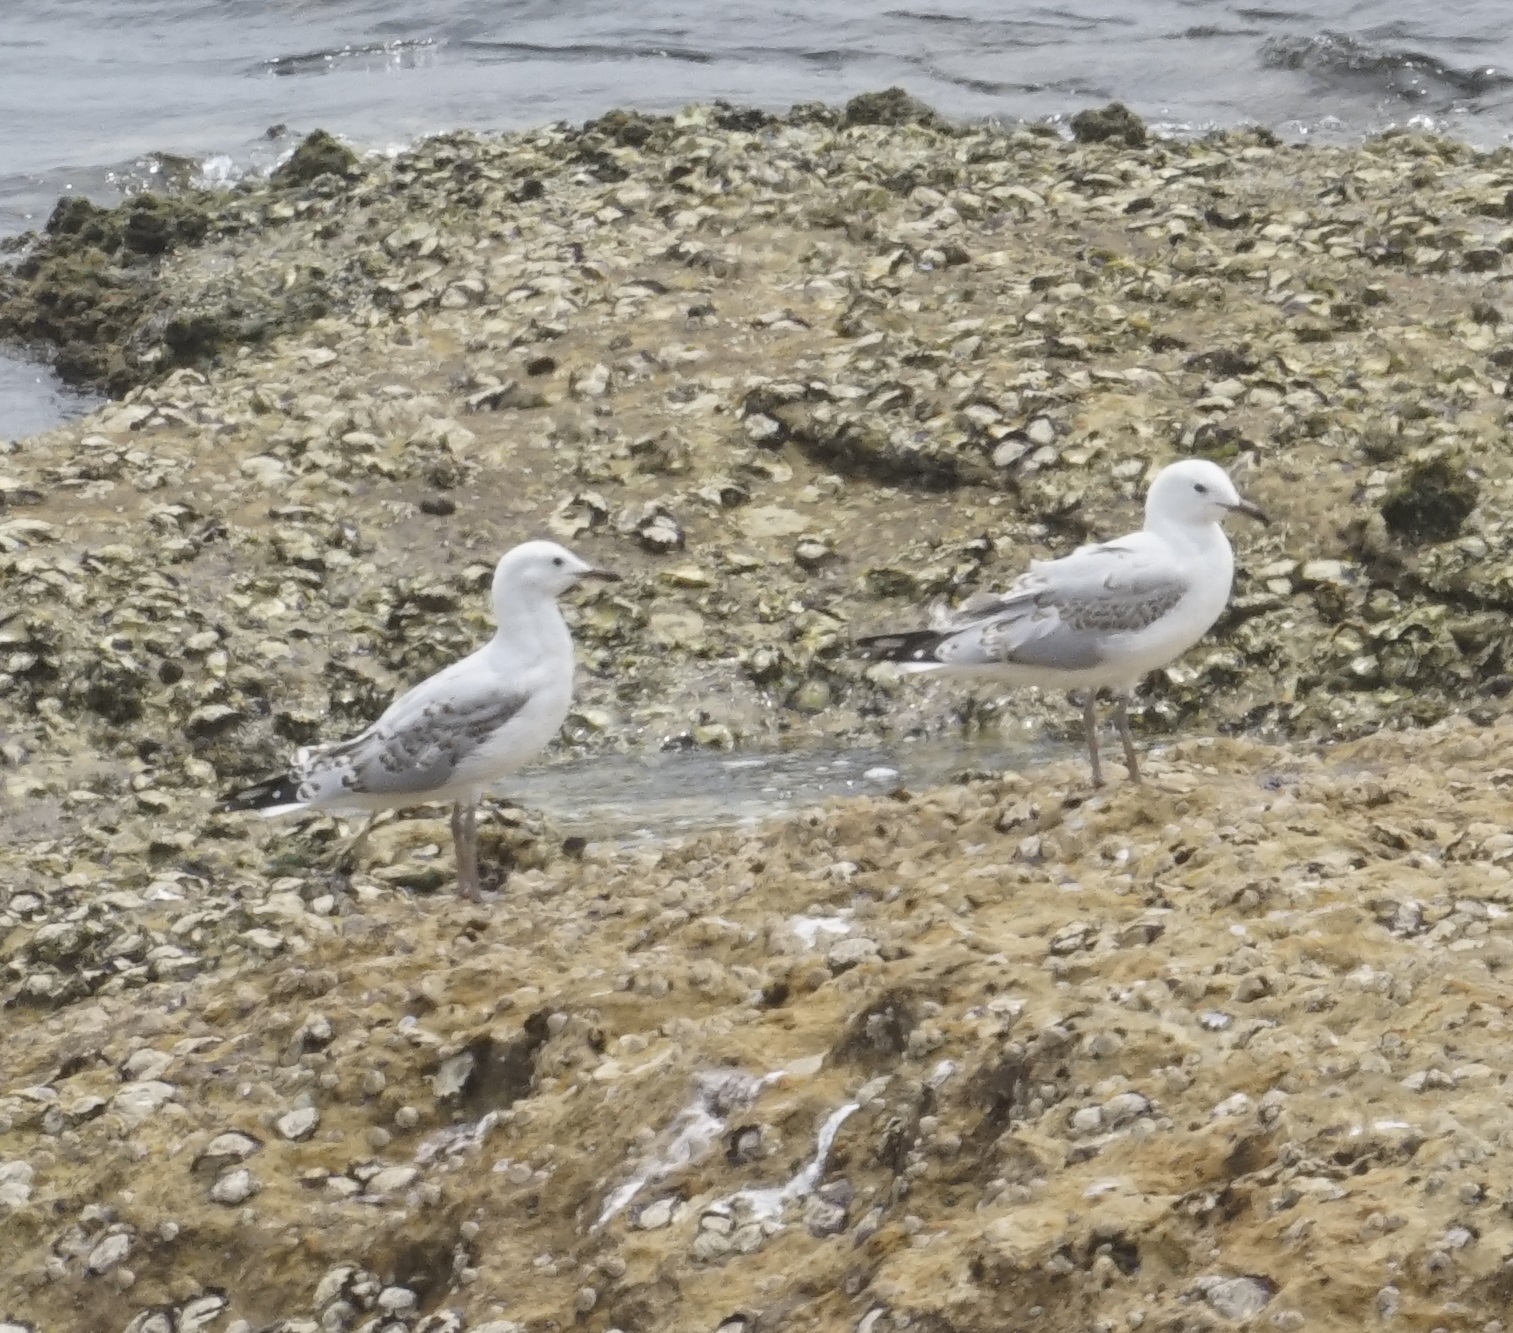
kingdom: Animalia
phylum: Chordata
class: Aves
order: Charadriiformes
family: Laridae
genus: Chroicocephalus
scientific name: Chroicocephalus novaehollandiae
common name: Silver gull
